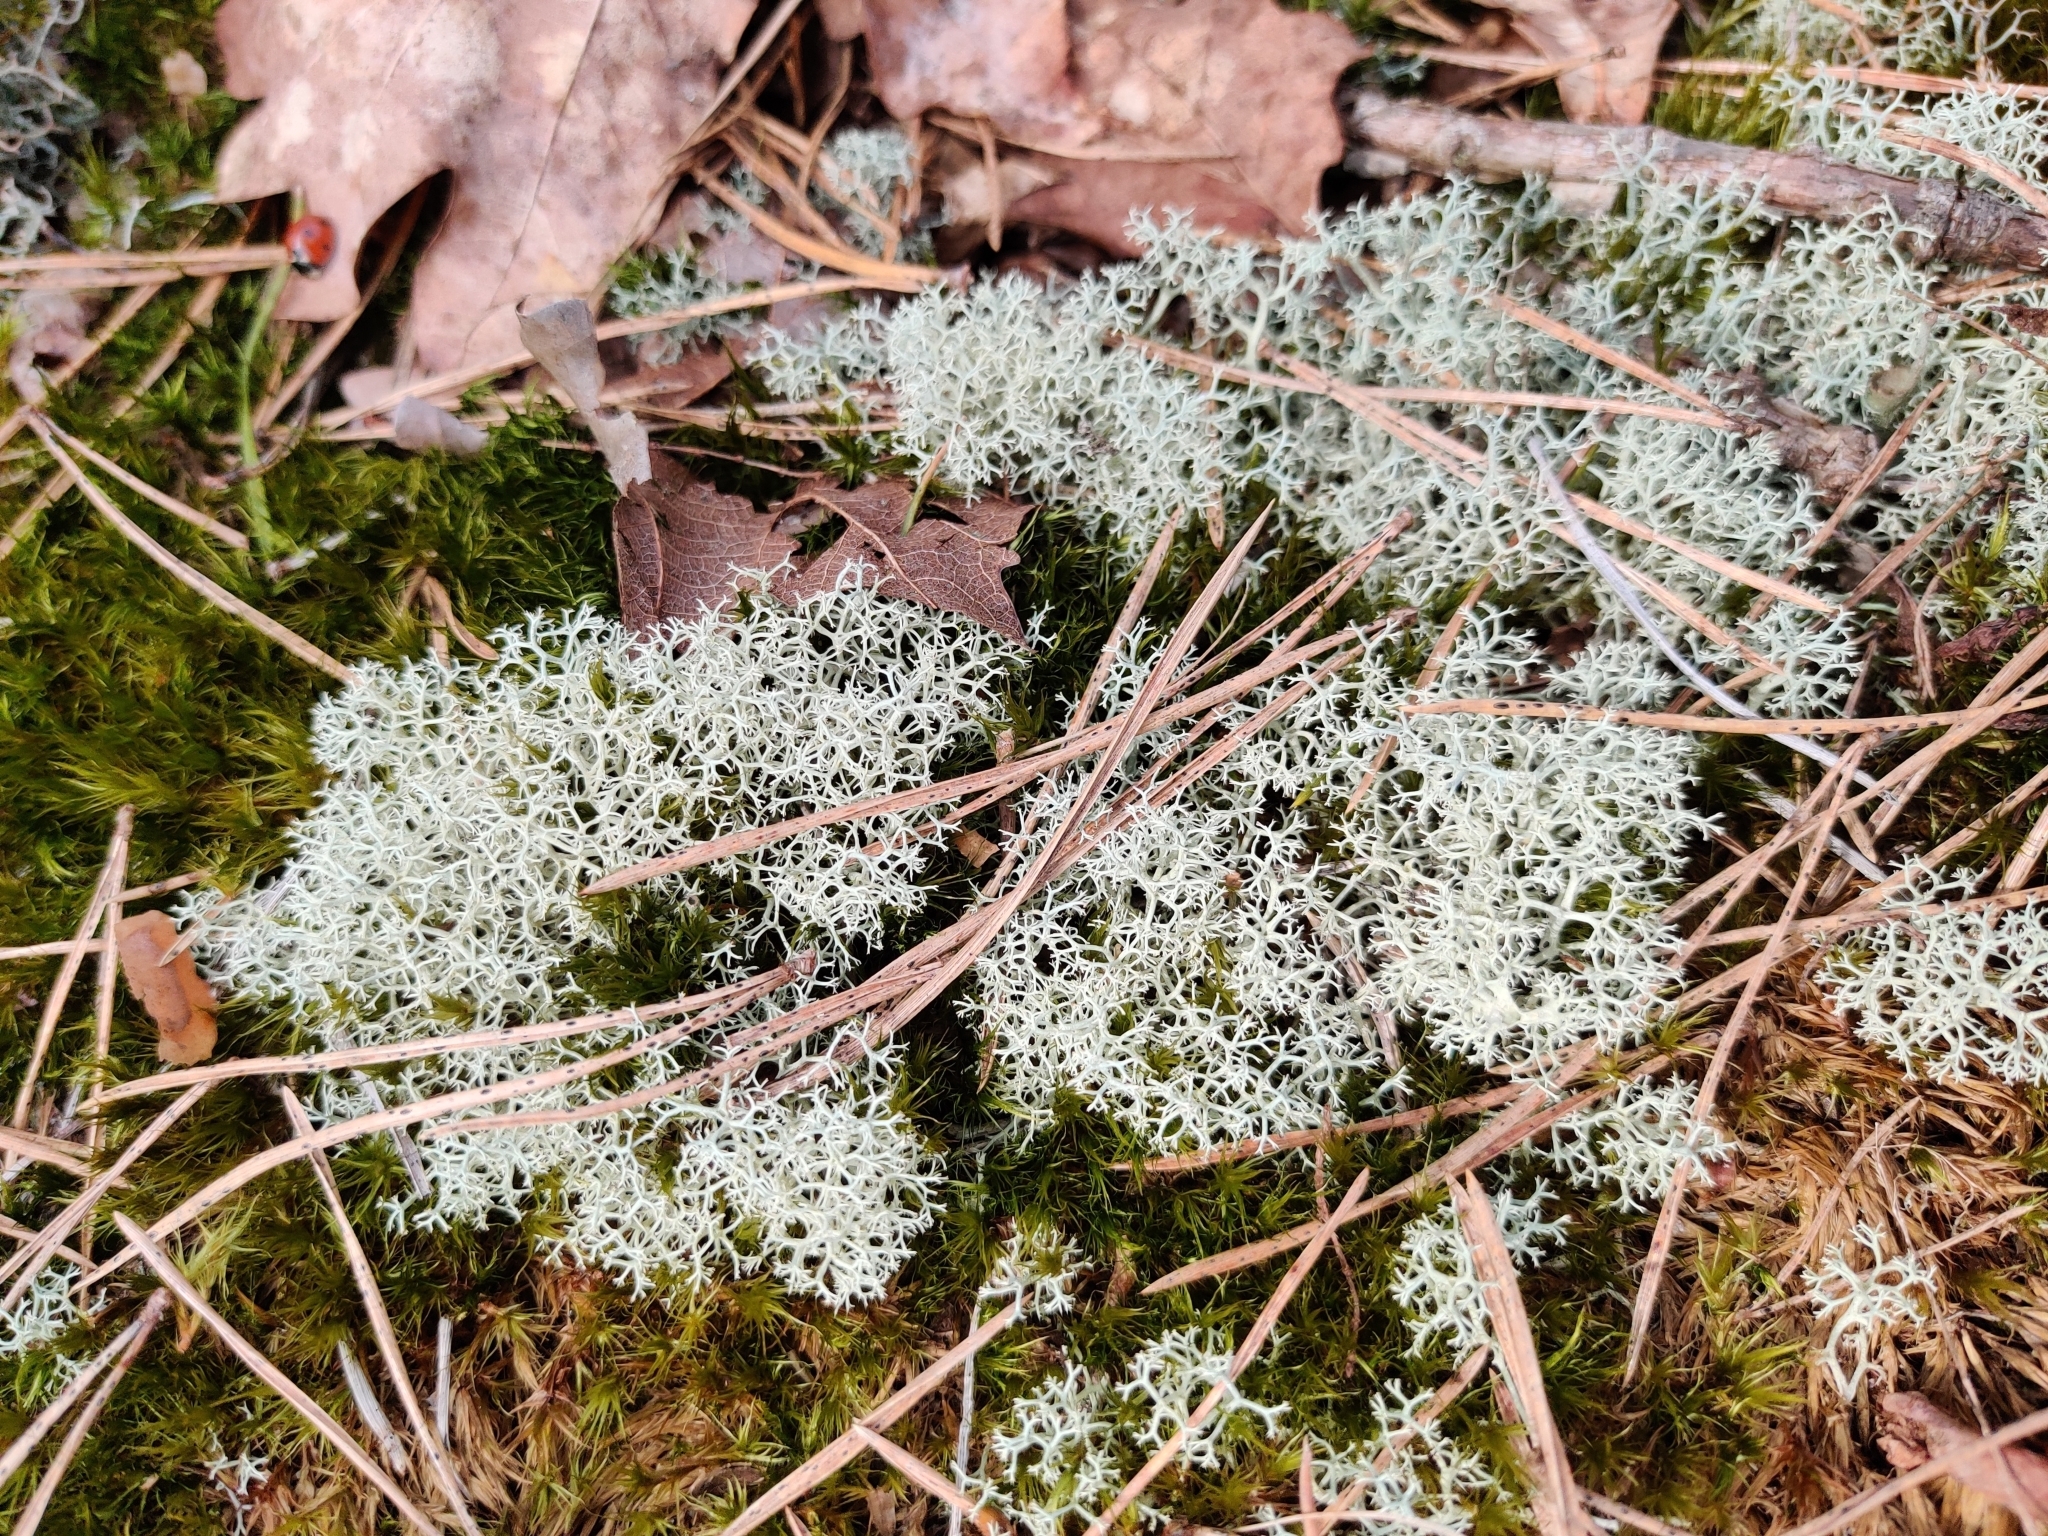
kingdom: Fungi
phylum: Ascomycota
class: Lecanoromycetes
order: Lecanorales
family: Cladoniaceae
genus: Cladonia
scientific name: Cladonia portentosa
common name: Reindeer lichen
